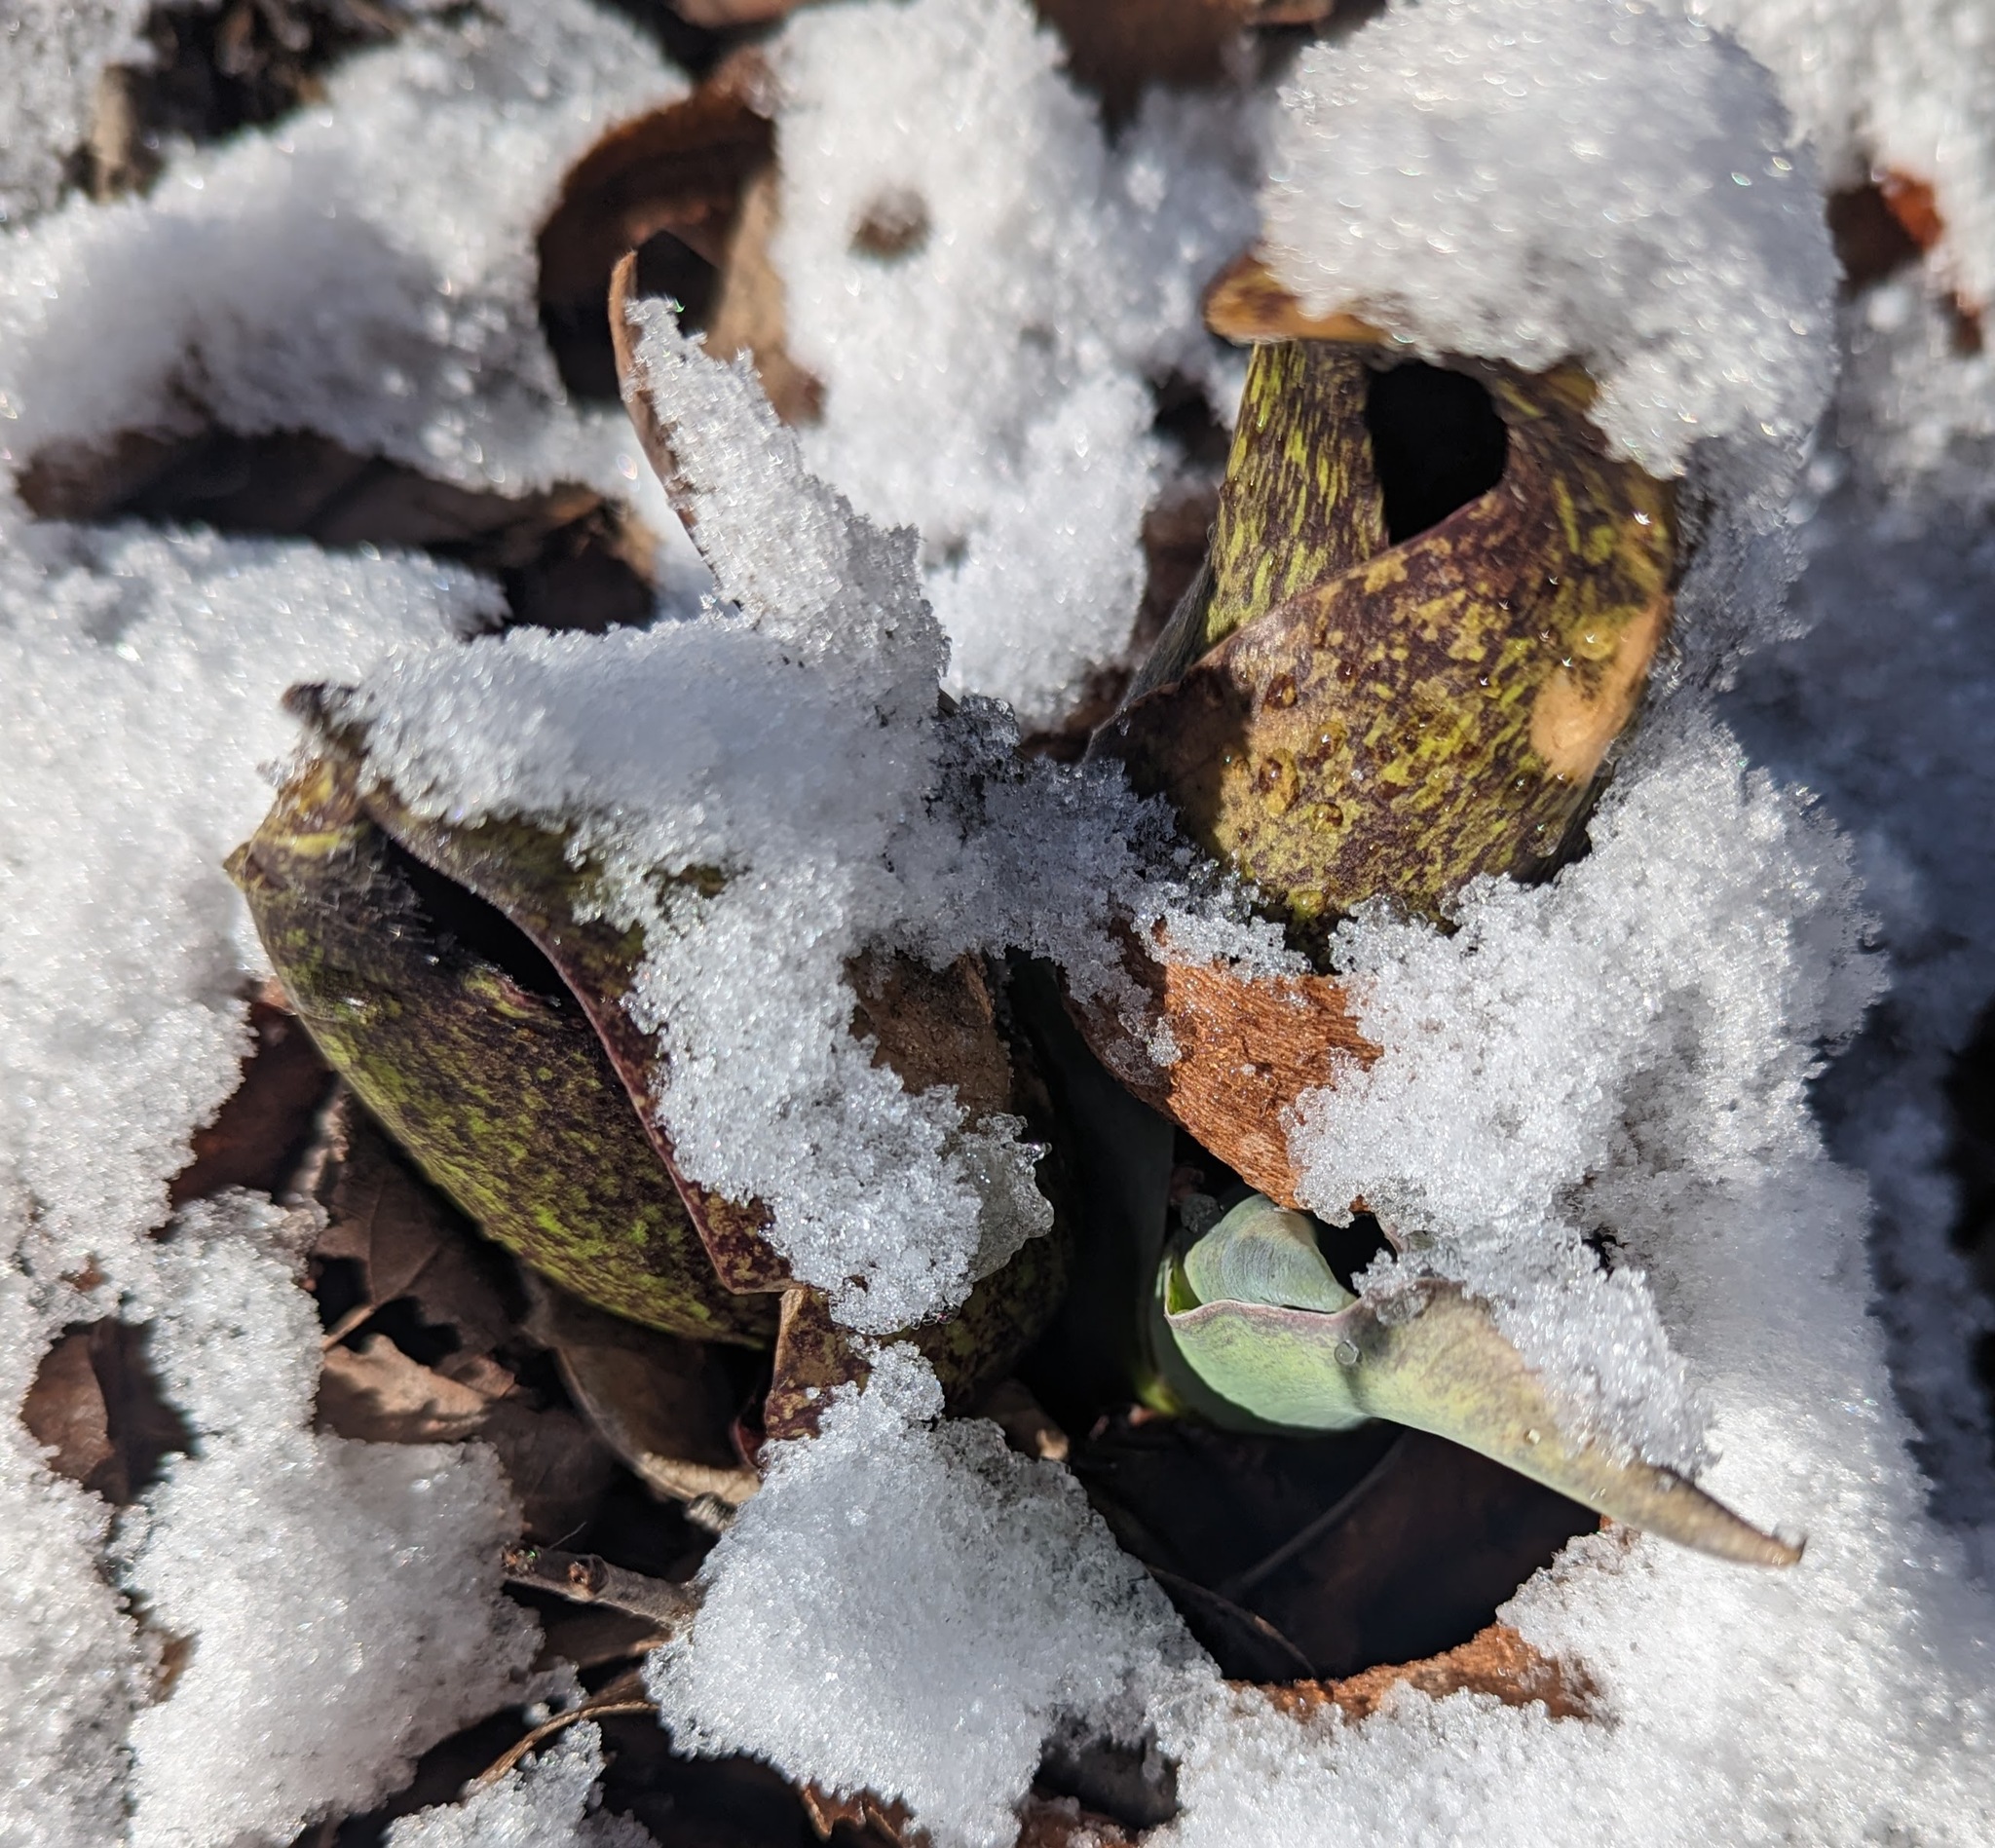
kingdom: Plantae
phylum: Tracheophyta
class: Liliopsida
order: Alismatales
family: Araceae
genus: Symplocarpus
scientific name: Symplocarpus foetidus
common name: Eastern skunk cabbage
